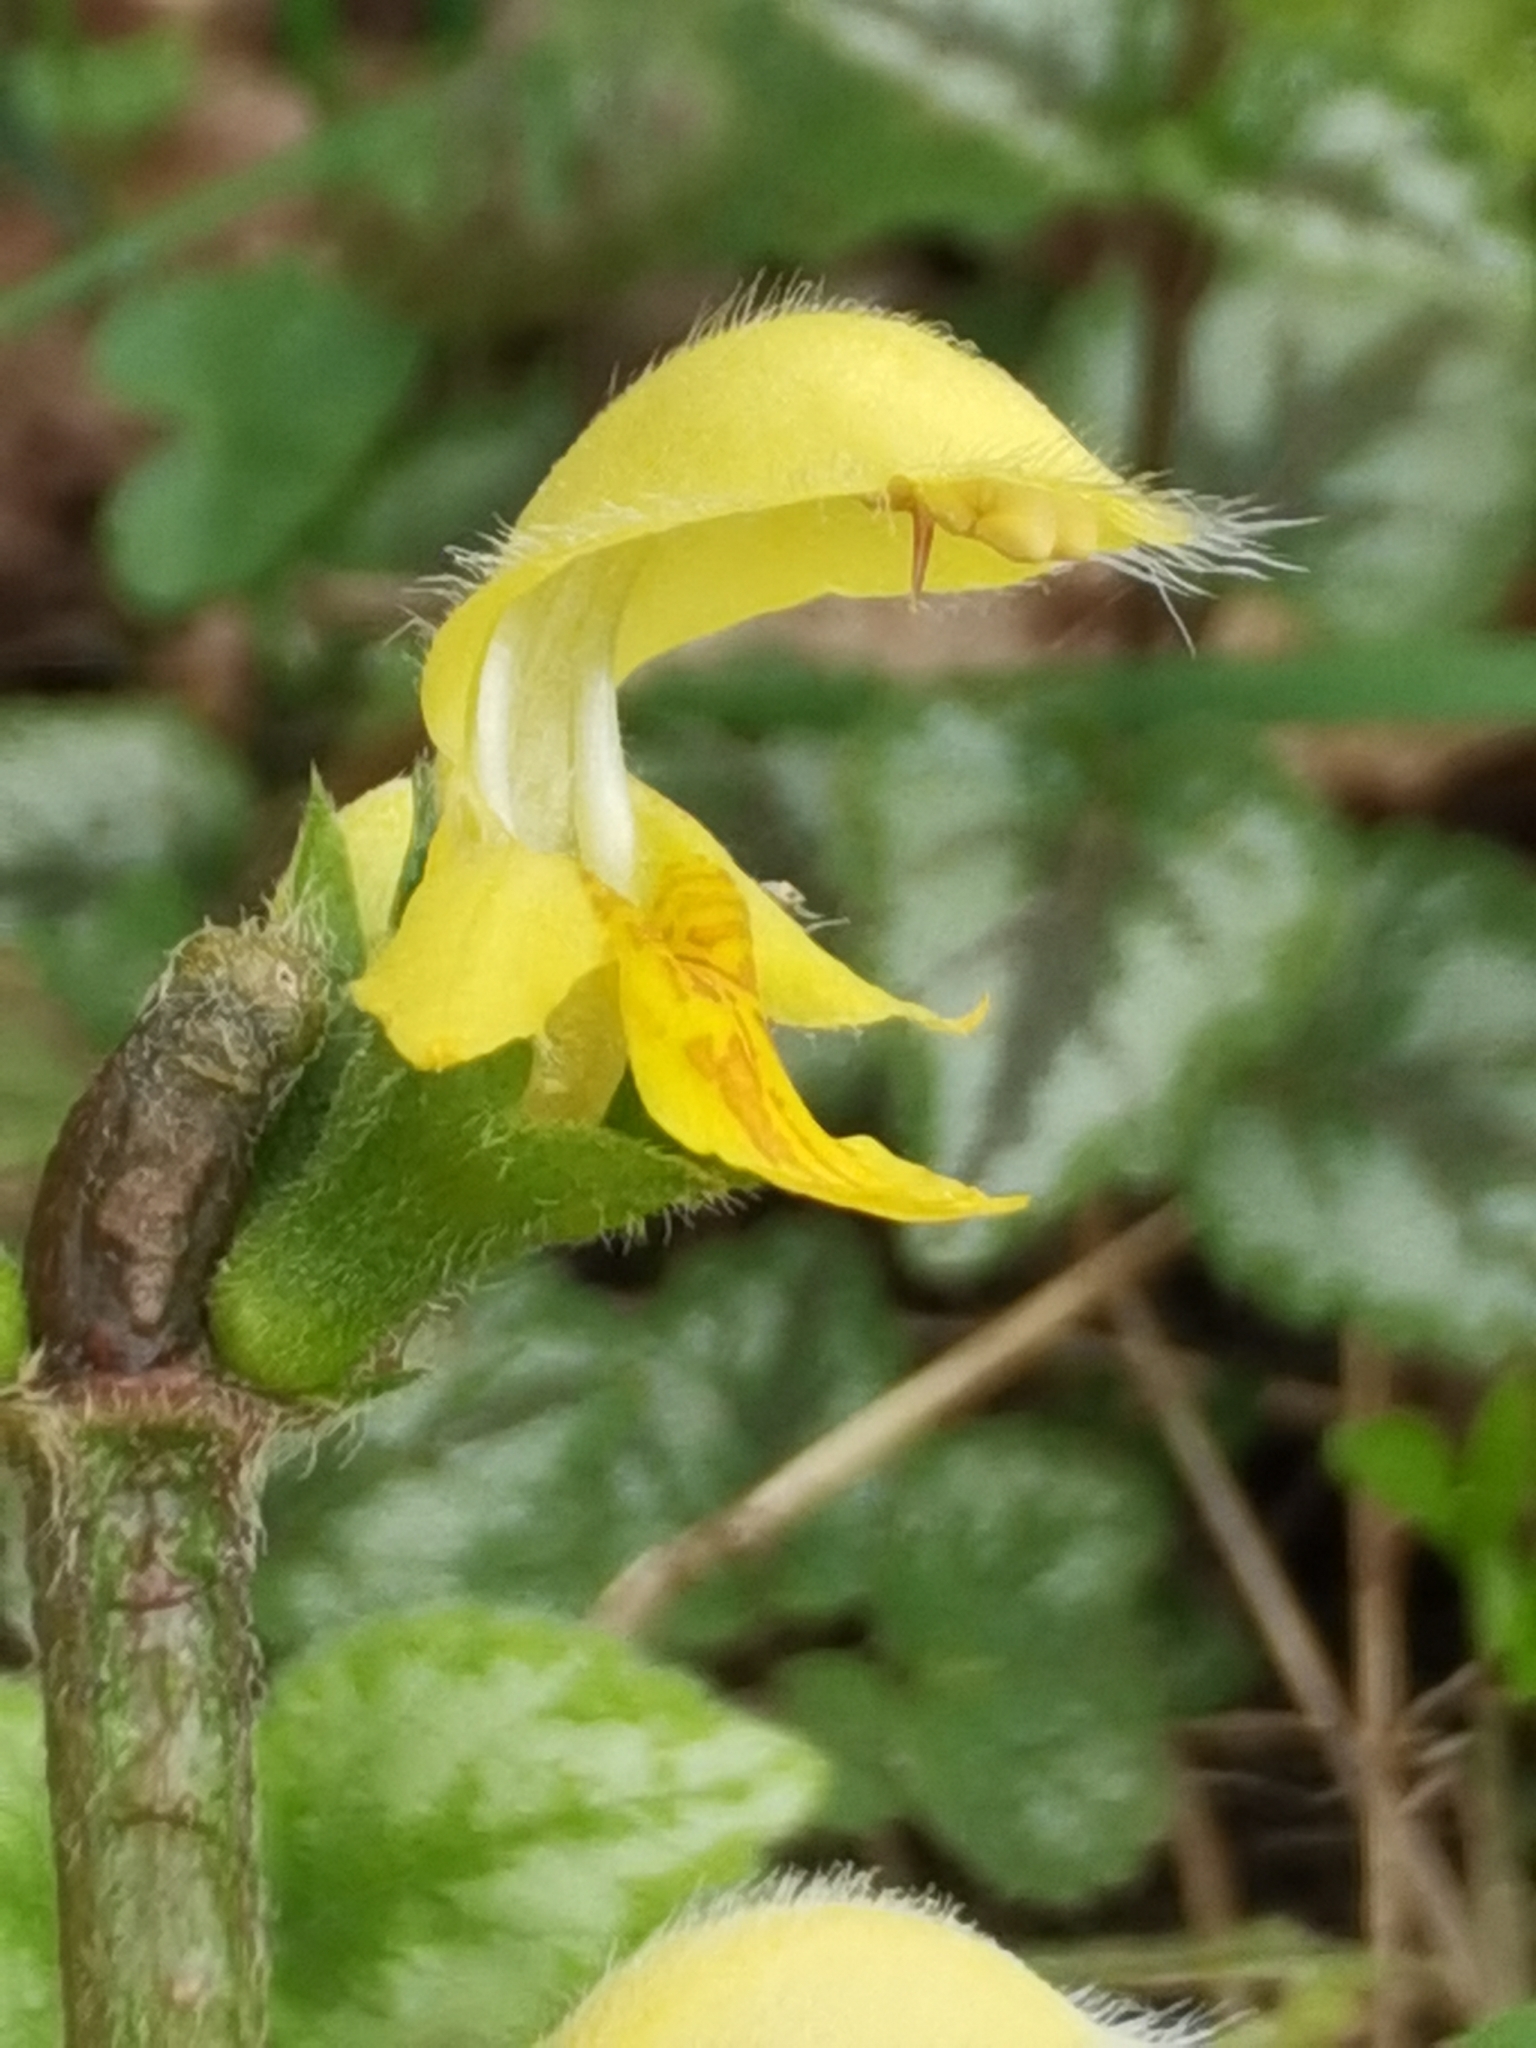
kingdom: Plantae
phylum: Tracheophyta
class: Magnoliopsida
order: Lamiales
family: Lamiaceae
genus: Lamium
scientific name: Lamium galeobdolon
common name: Yellow archangel
